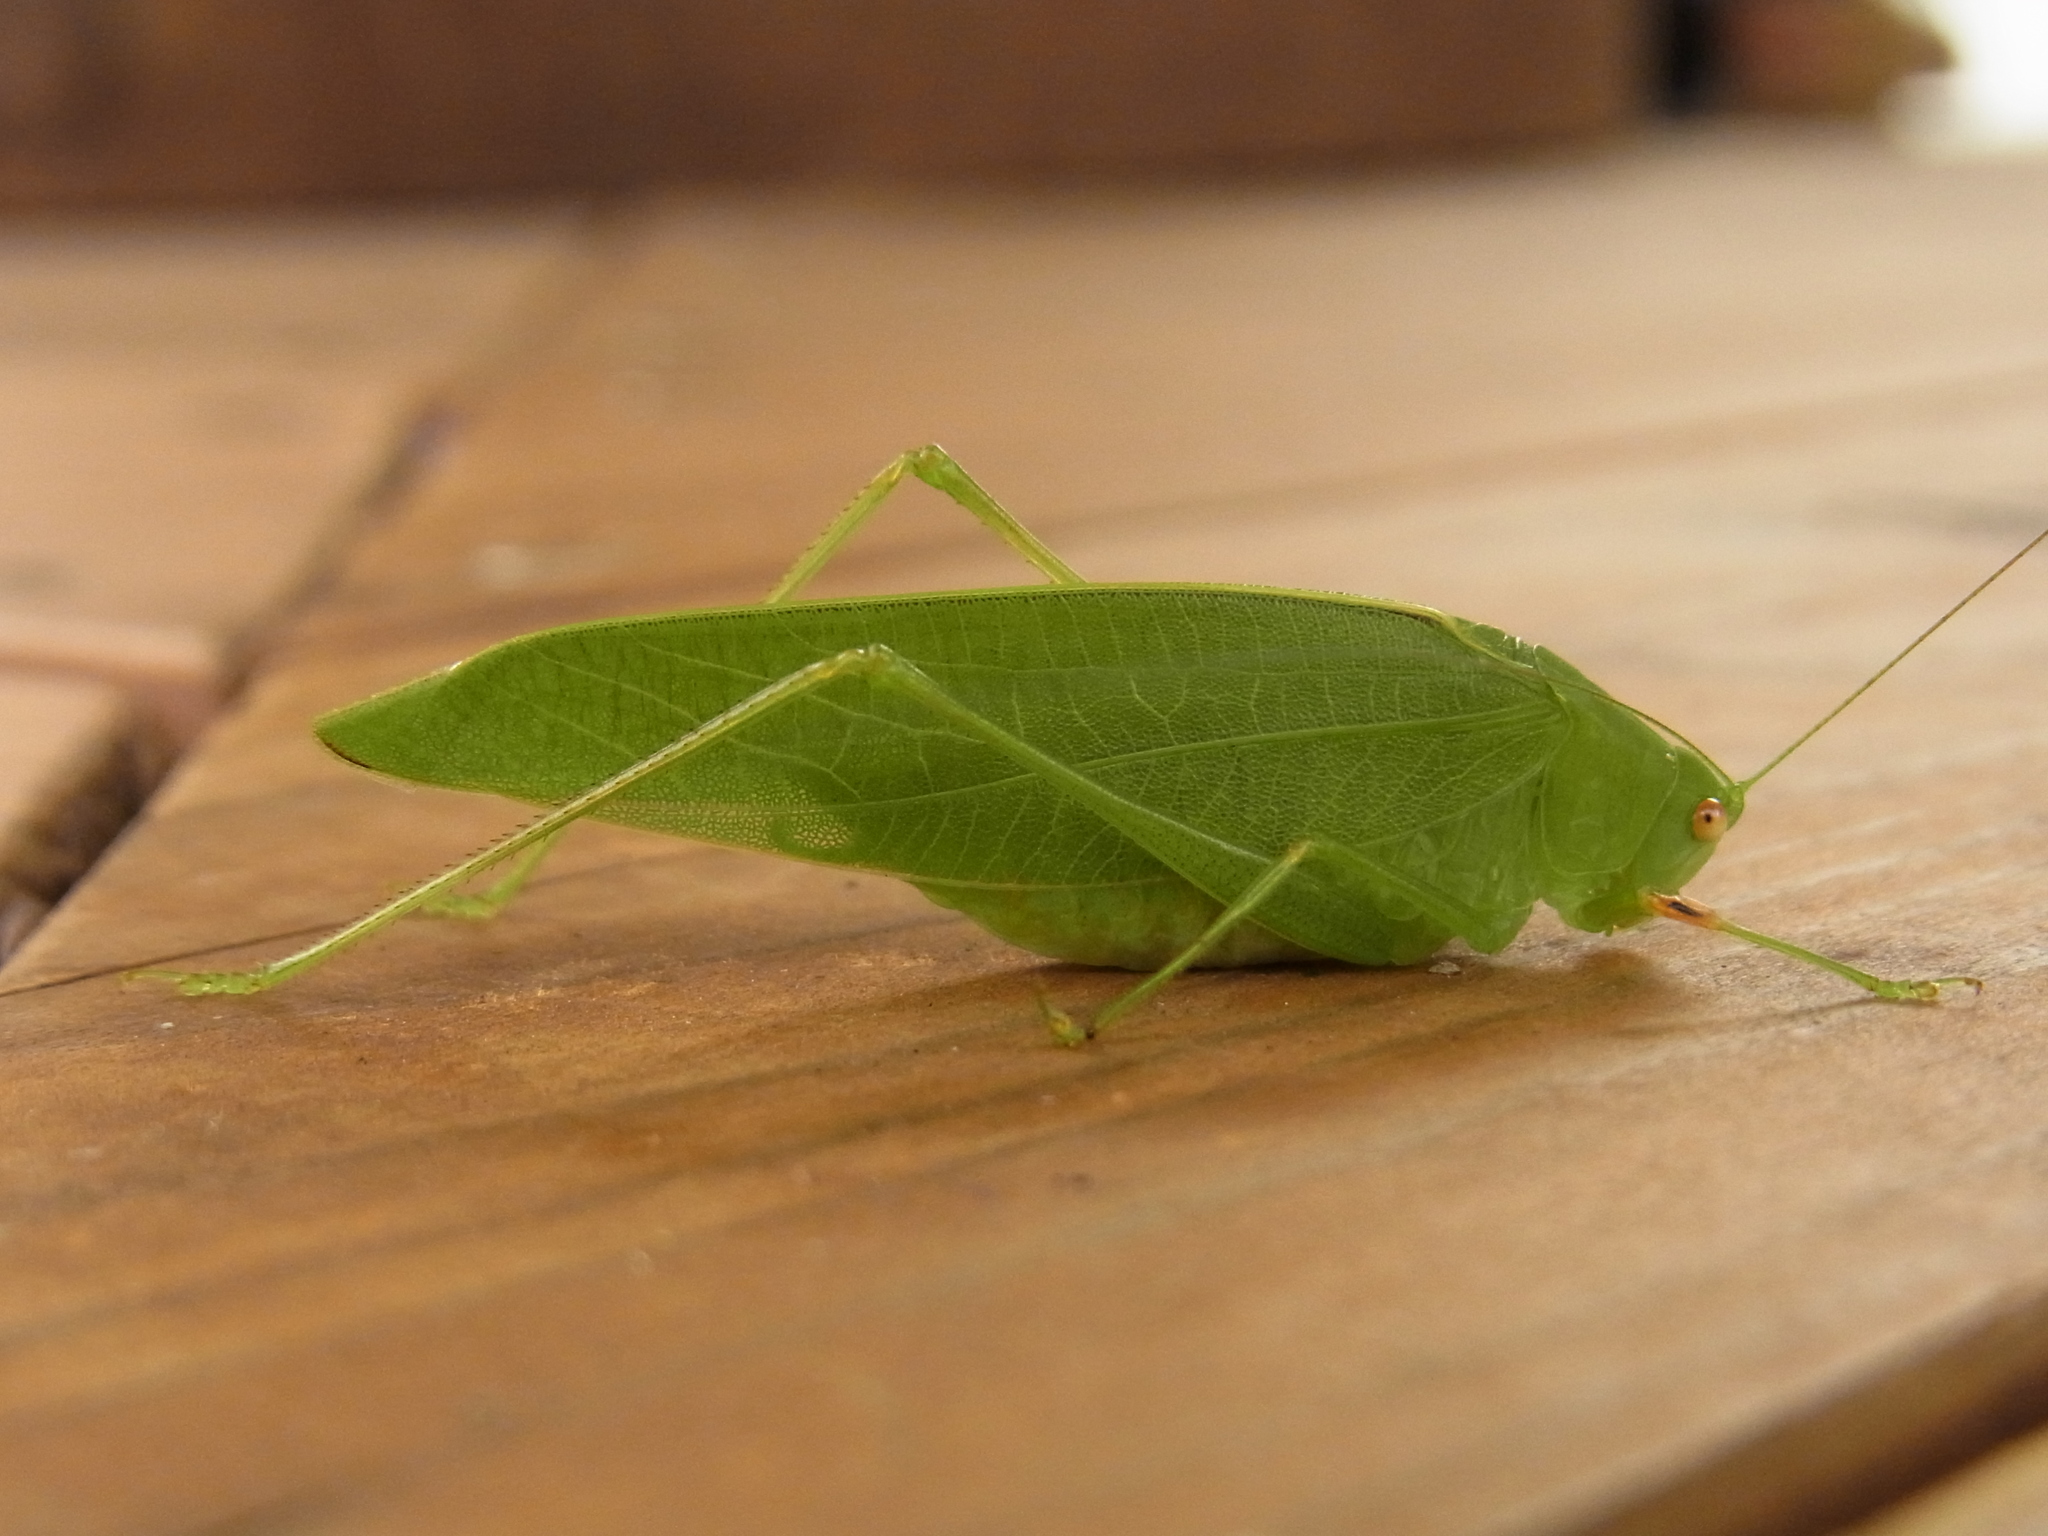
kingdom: Animalia
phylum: Arthropoda
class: Insecta
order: Orthoptera
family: Tettigoniidae
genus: Phaulula
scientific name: Phaulula macilenta
